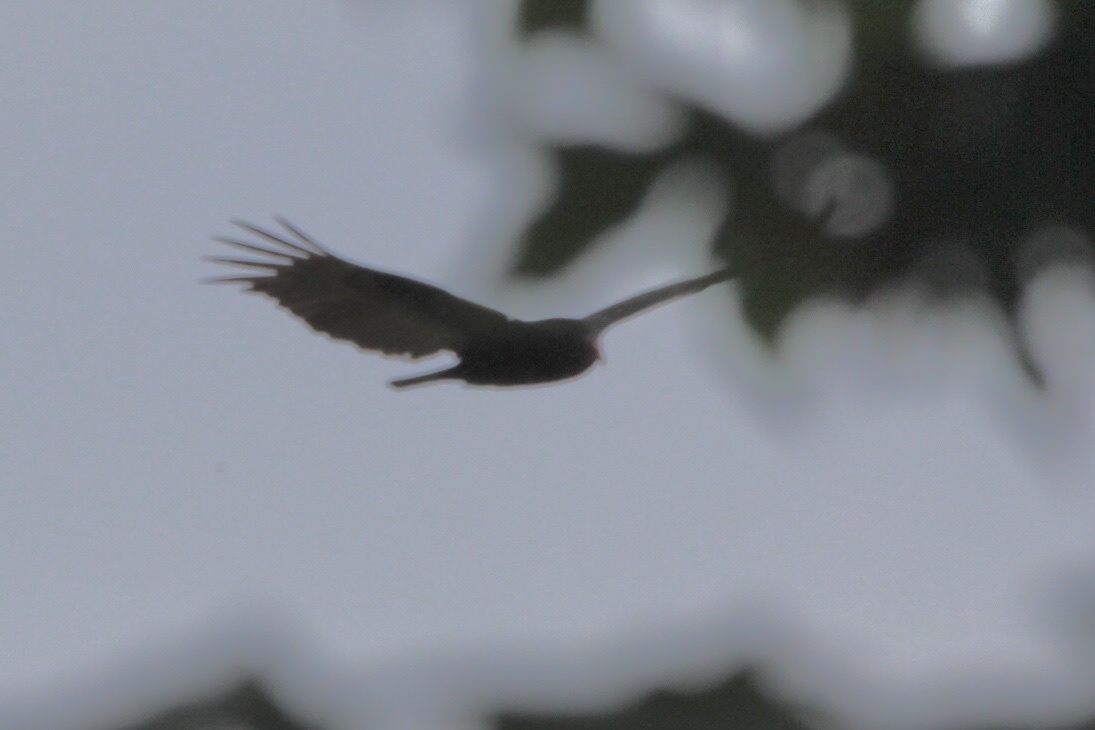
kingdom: Animalia
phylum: Chordata
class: Aves
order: Accipitriformes
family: Cathartidae
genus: Cathartes
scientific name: Cathartes aura
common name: Turkey vulture
